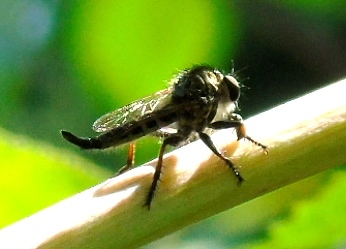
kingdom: Animalia
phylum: Arthropoda
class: Insecta
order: Diptera
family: Asilidae
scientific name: Asilidae
